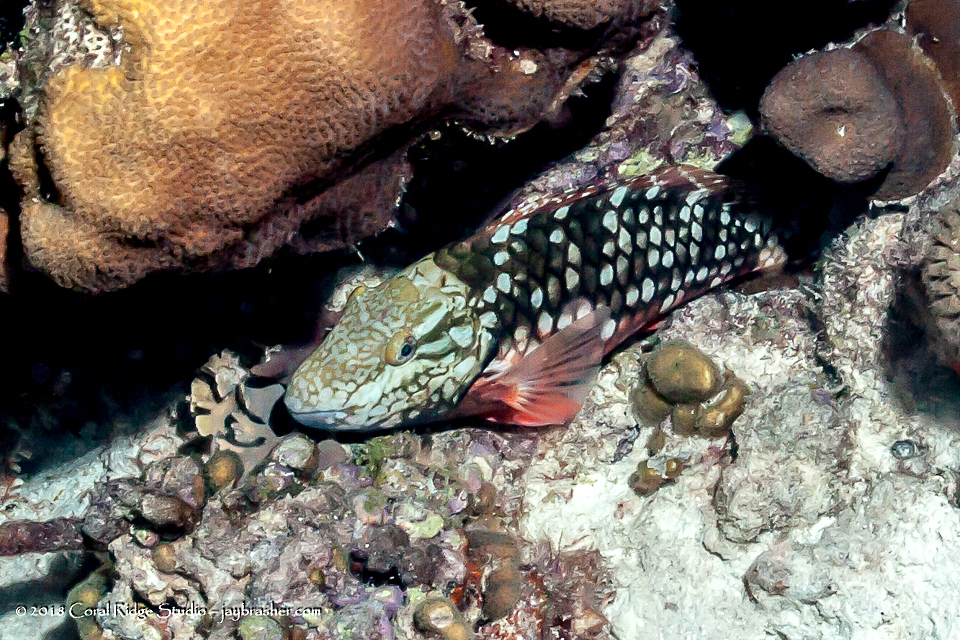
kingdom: Animalia
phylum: Chordata
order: Perciformes
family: Scaridae
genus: Sparisoma
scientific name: Sparisoma viride
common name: Stoplight parrotfish
